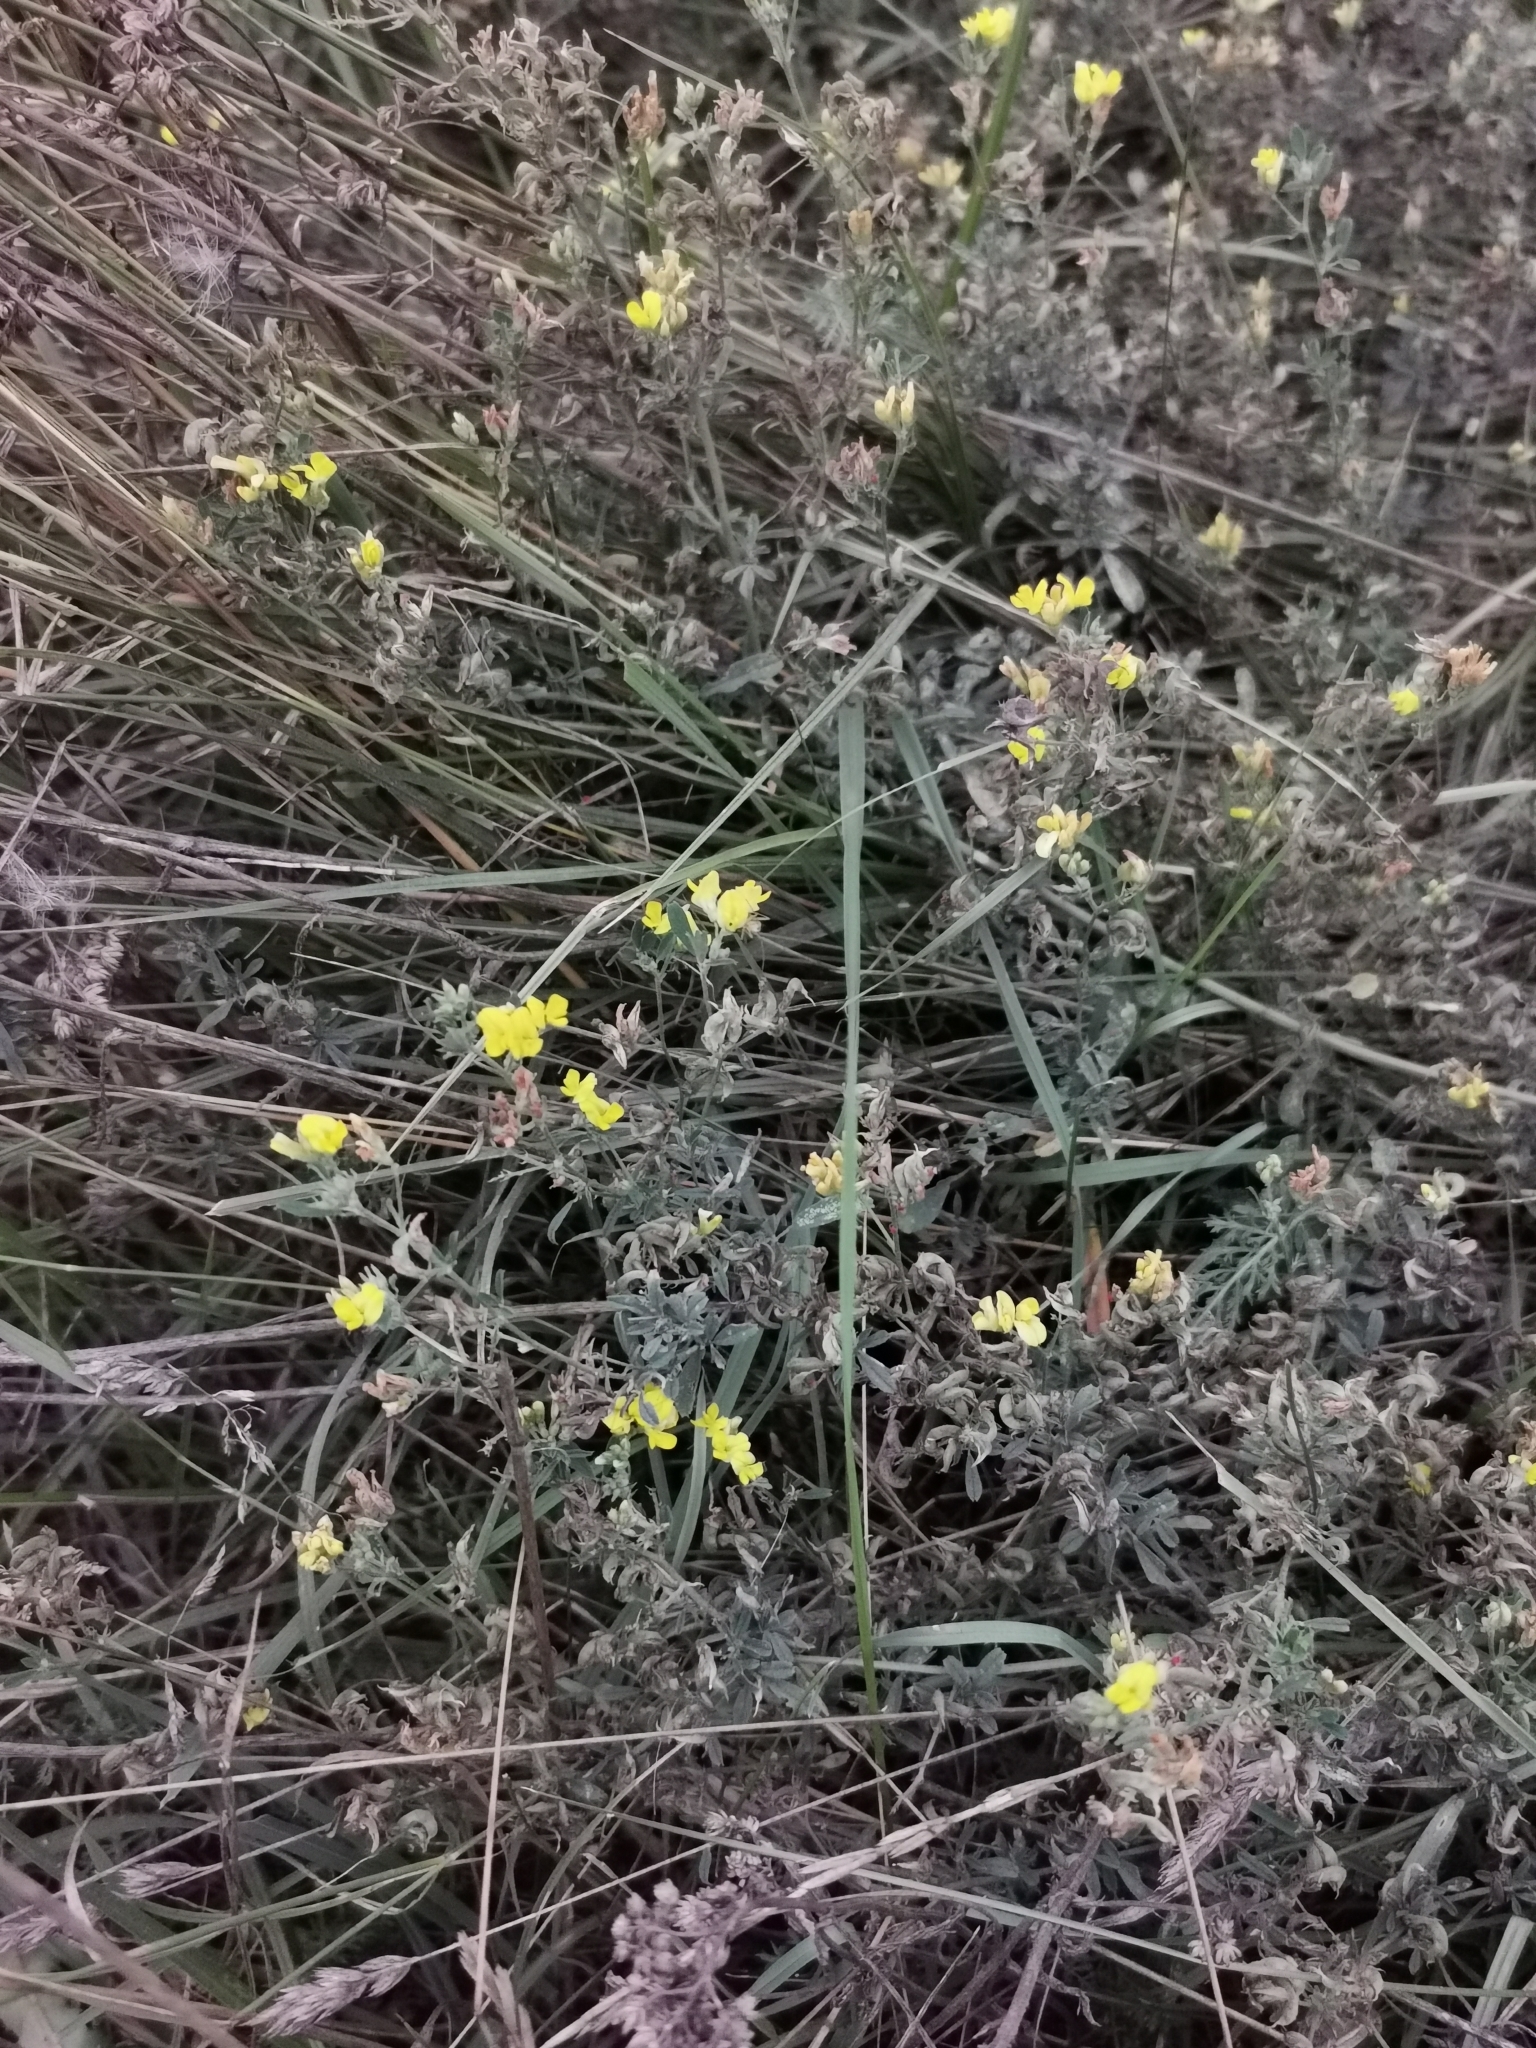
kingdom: Plantae
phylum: Tracheophyta
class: Magnoliopsida
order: Fabales
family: Fabaceae
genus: Medicago
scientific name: Medicago falcata
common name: Sickle medick
